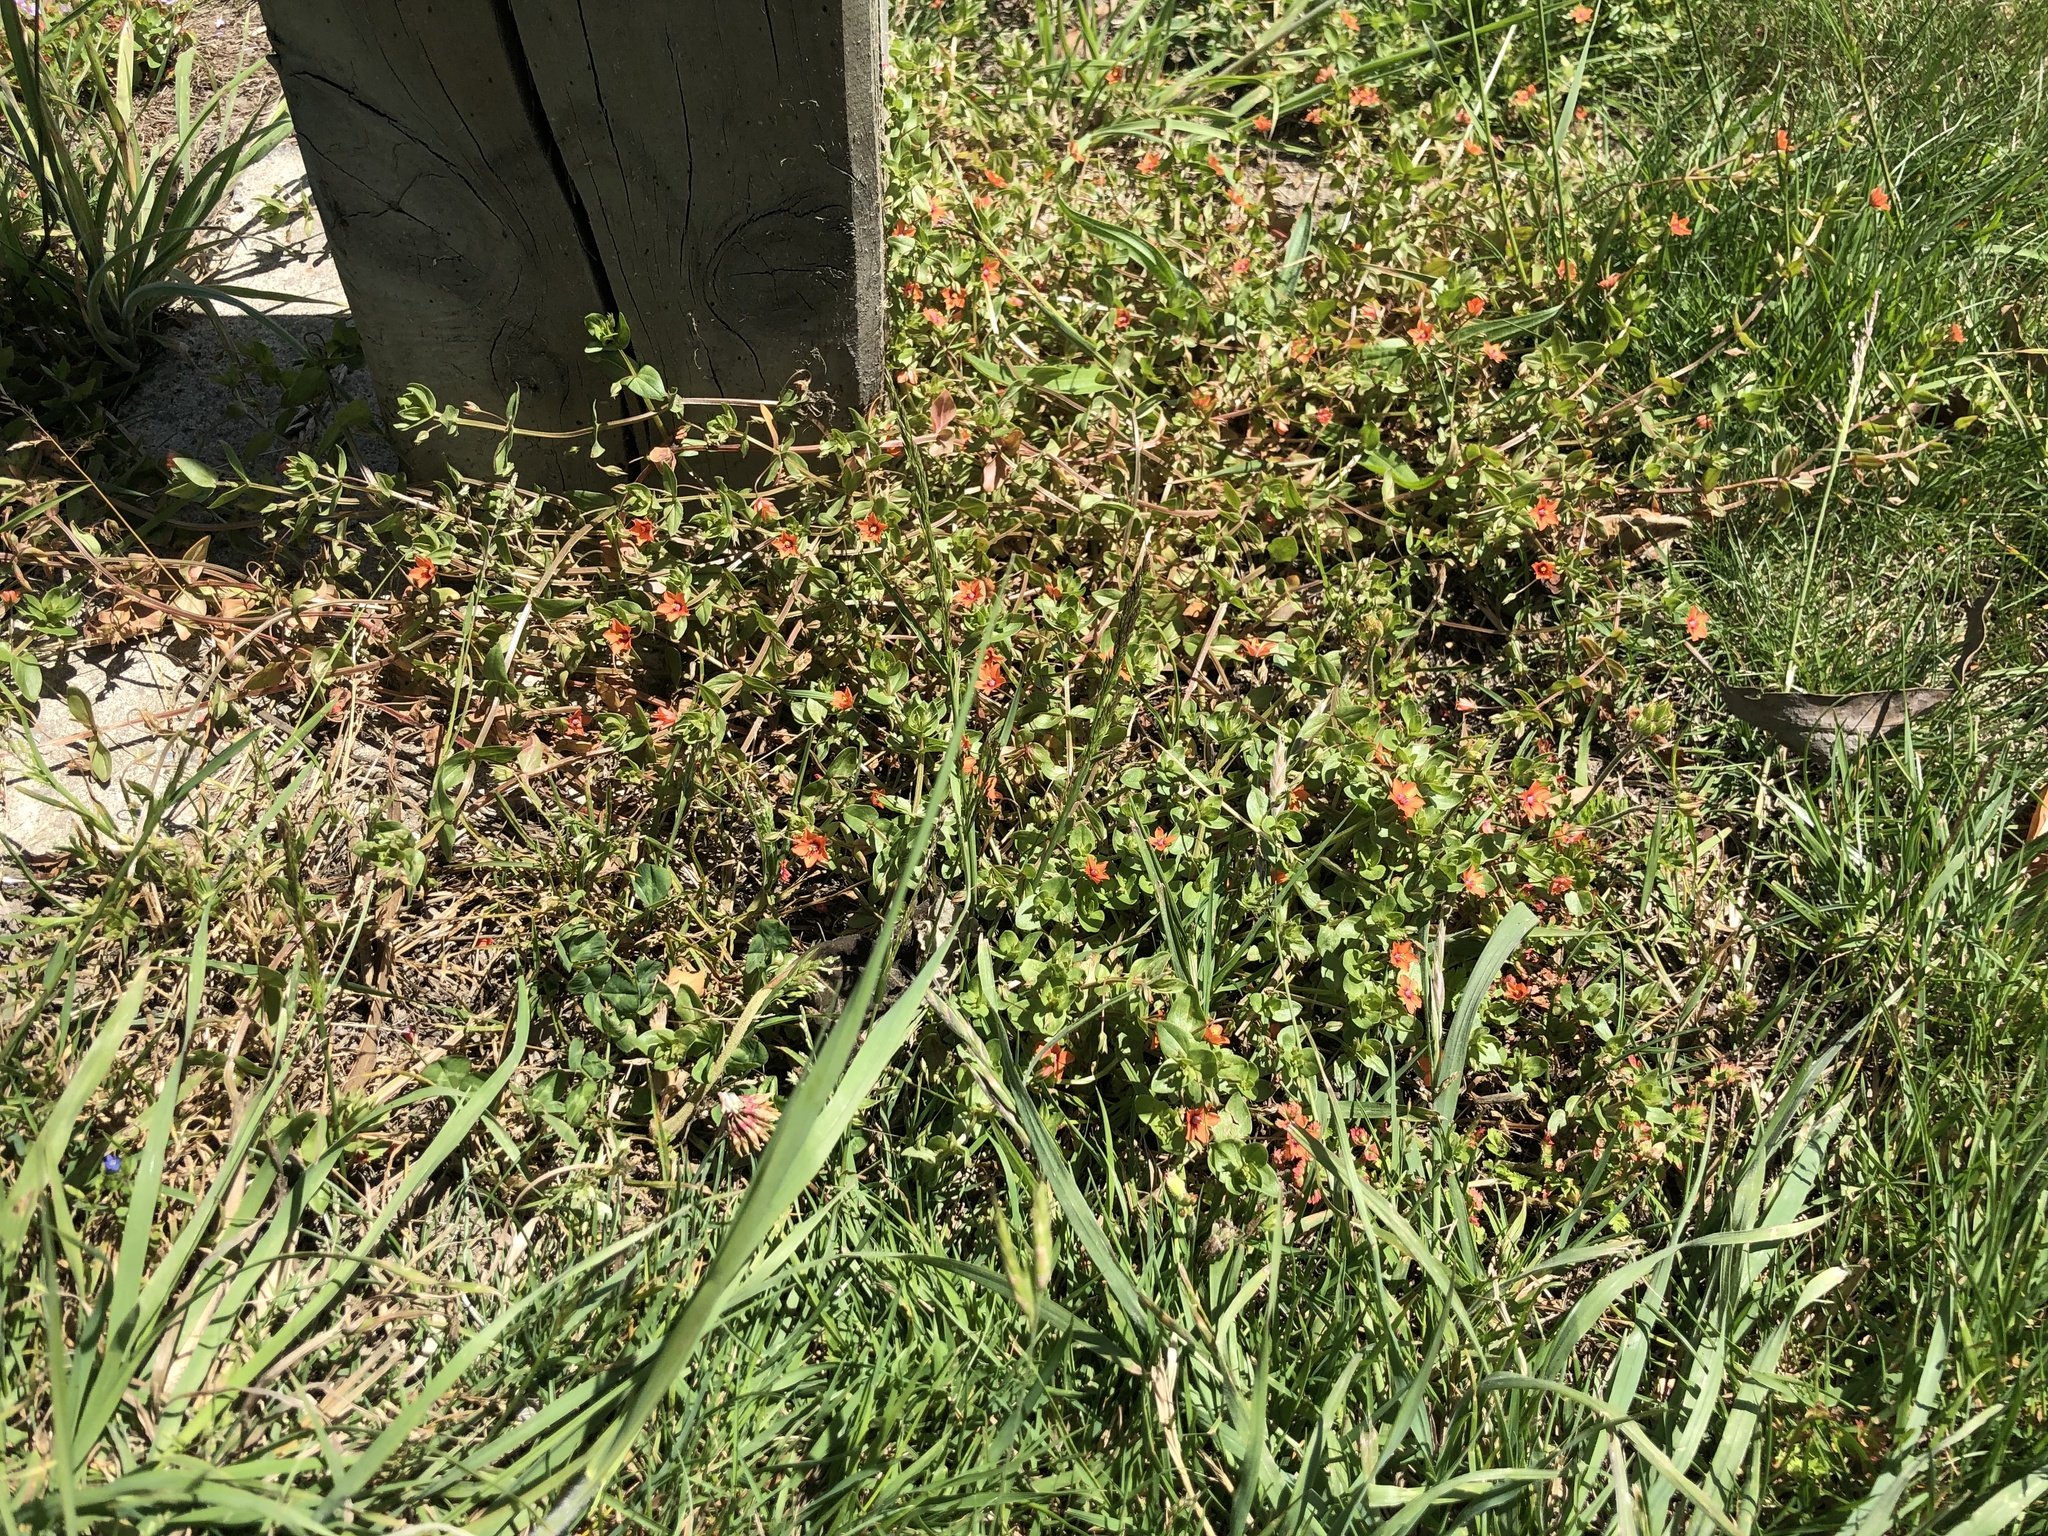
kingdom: Plantae
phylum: Tracheophyta
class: Magnoliopsida
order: Ericales
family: Primulaceae
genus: Lysimachia
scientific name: Lysimachia arvensis
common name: Scarlet pimpernel
